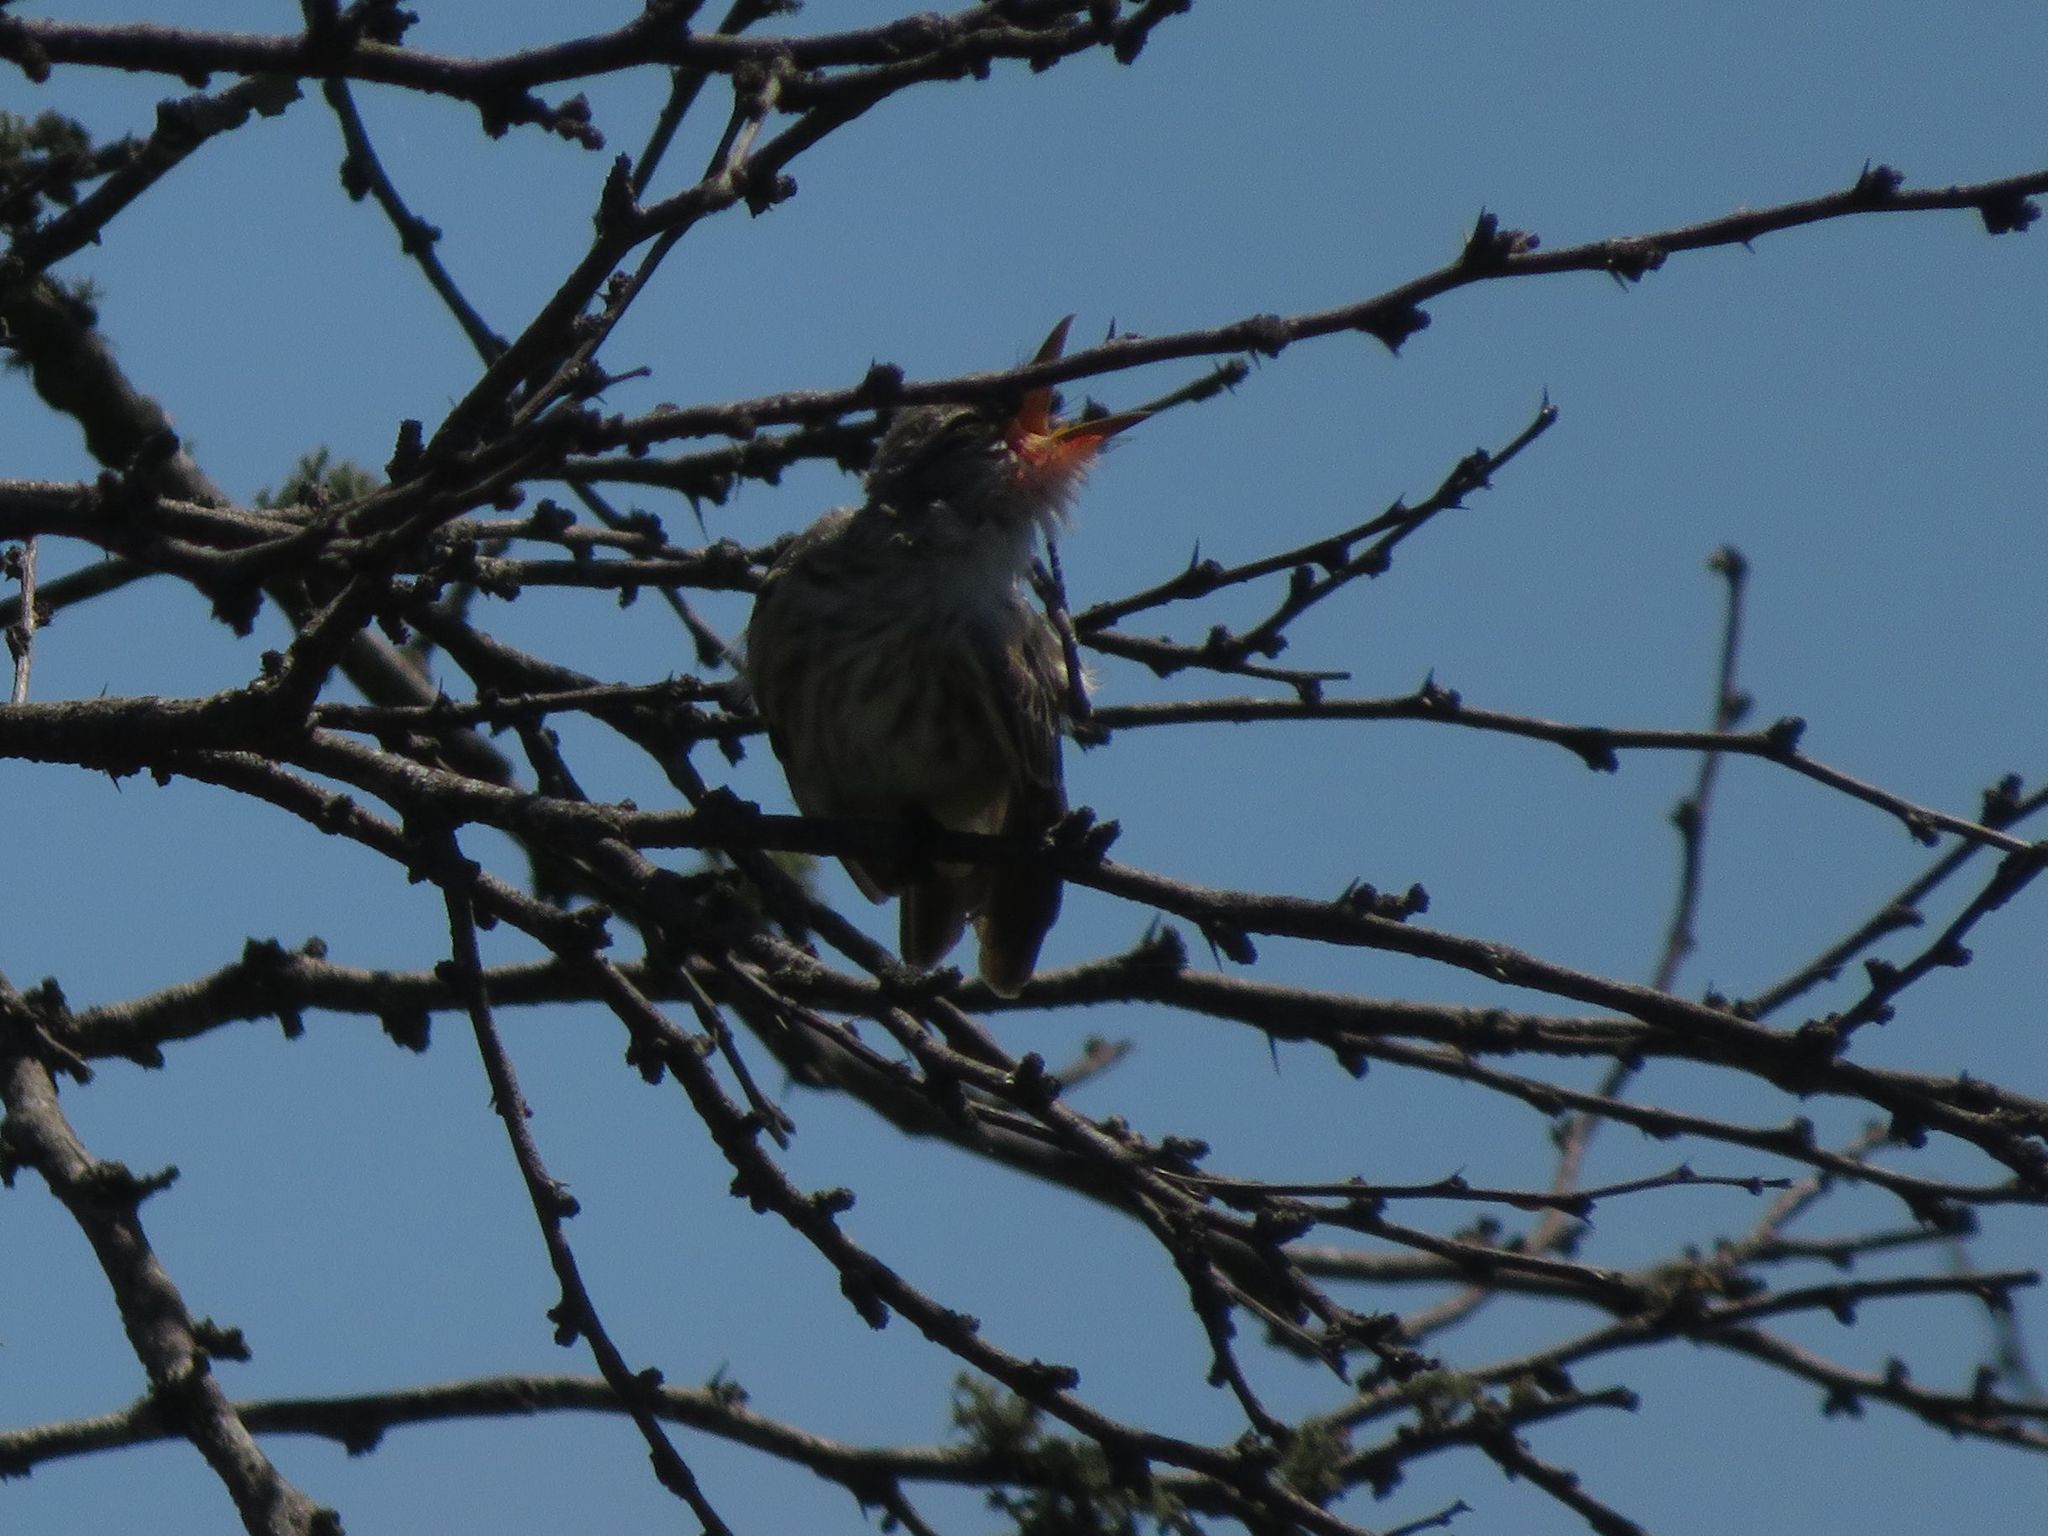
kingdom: Animalia
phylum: Chordata
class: Aves
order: Passeriformes
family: Tyrannidae
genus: Pyrocephalus
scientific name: Pyrocephalus rubinus
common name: Vermilion flycatcher
